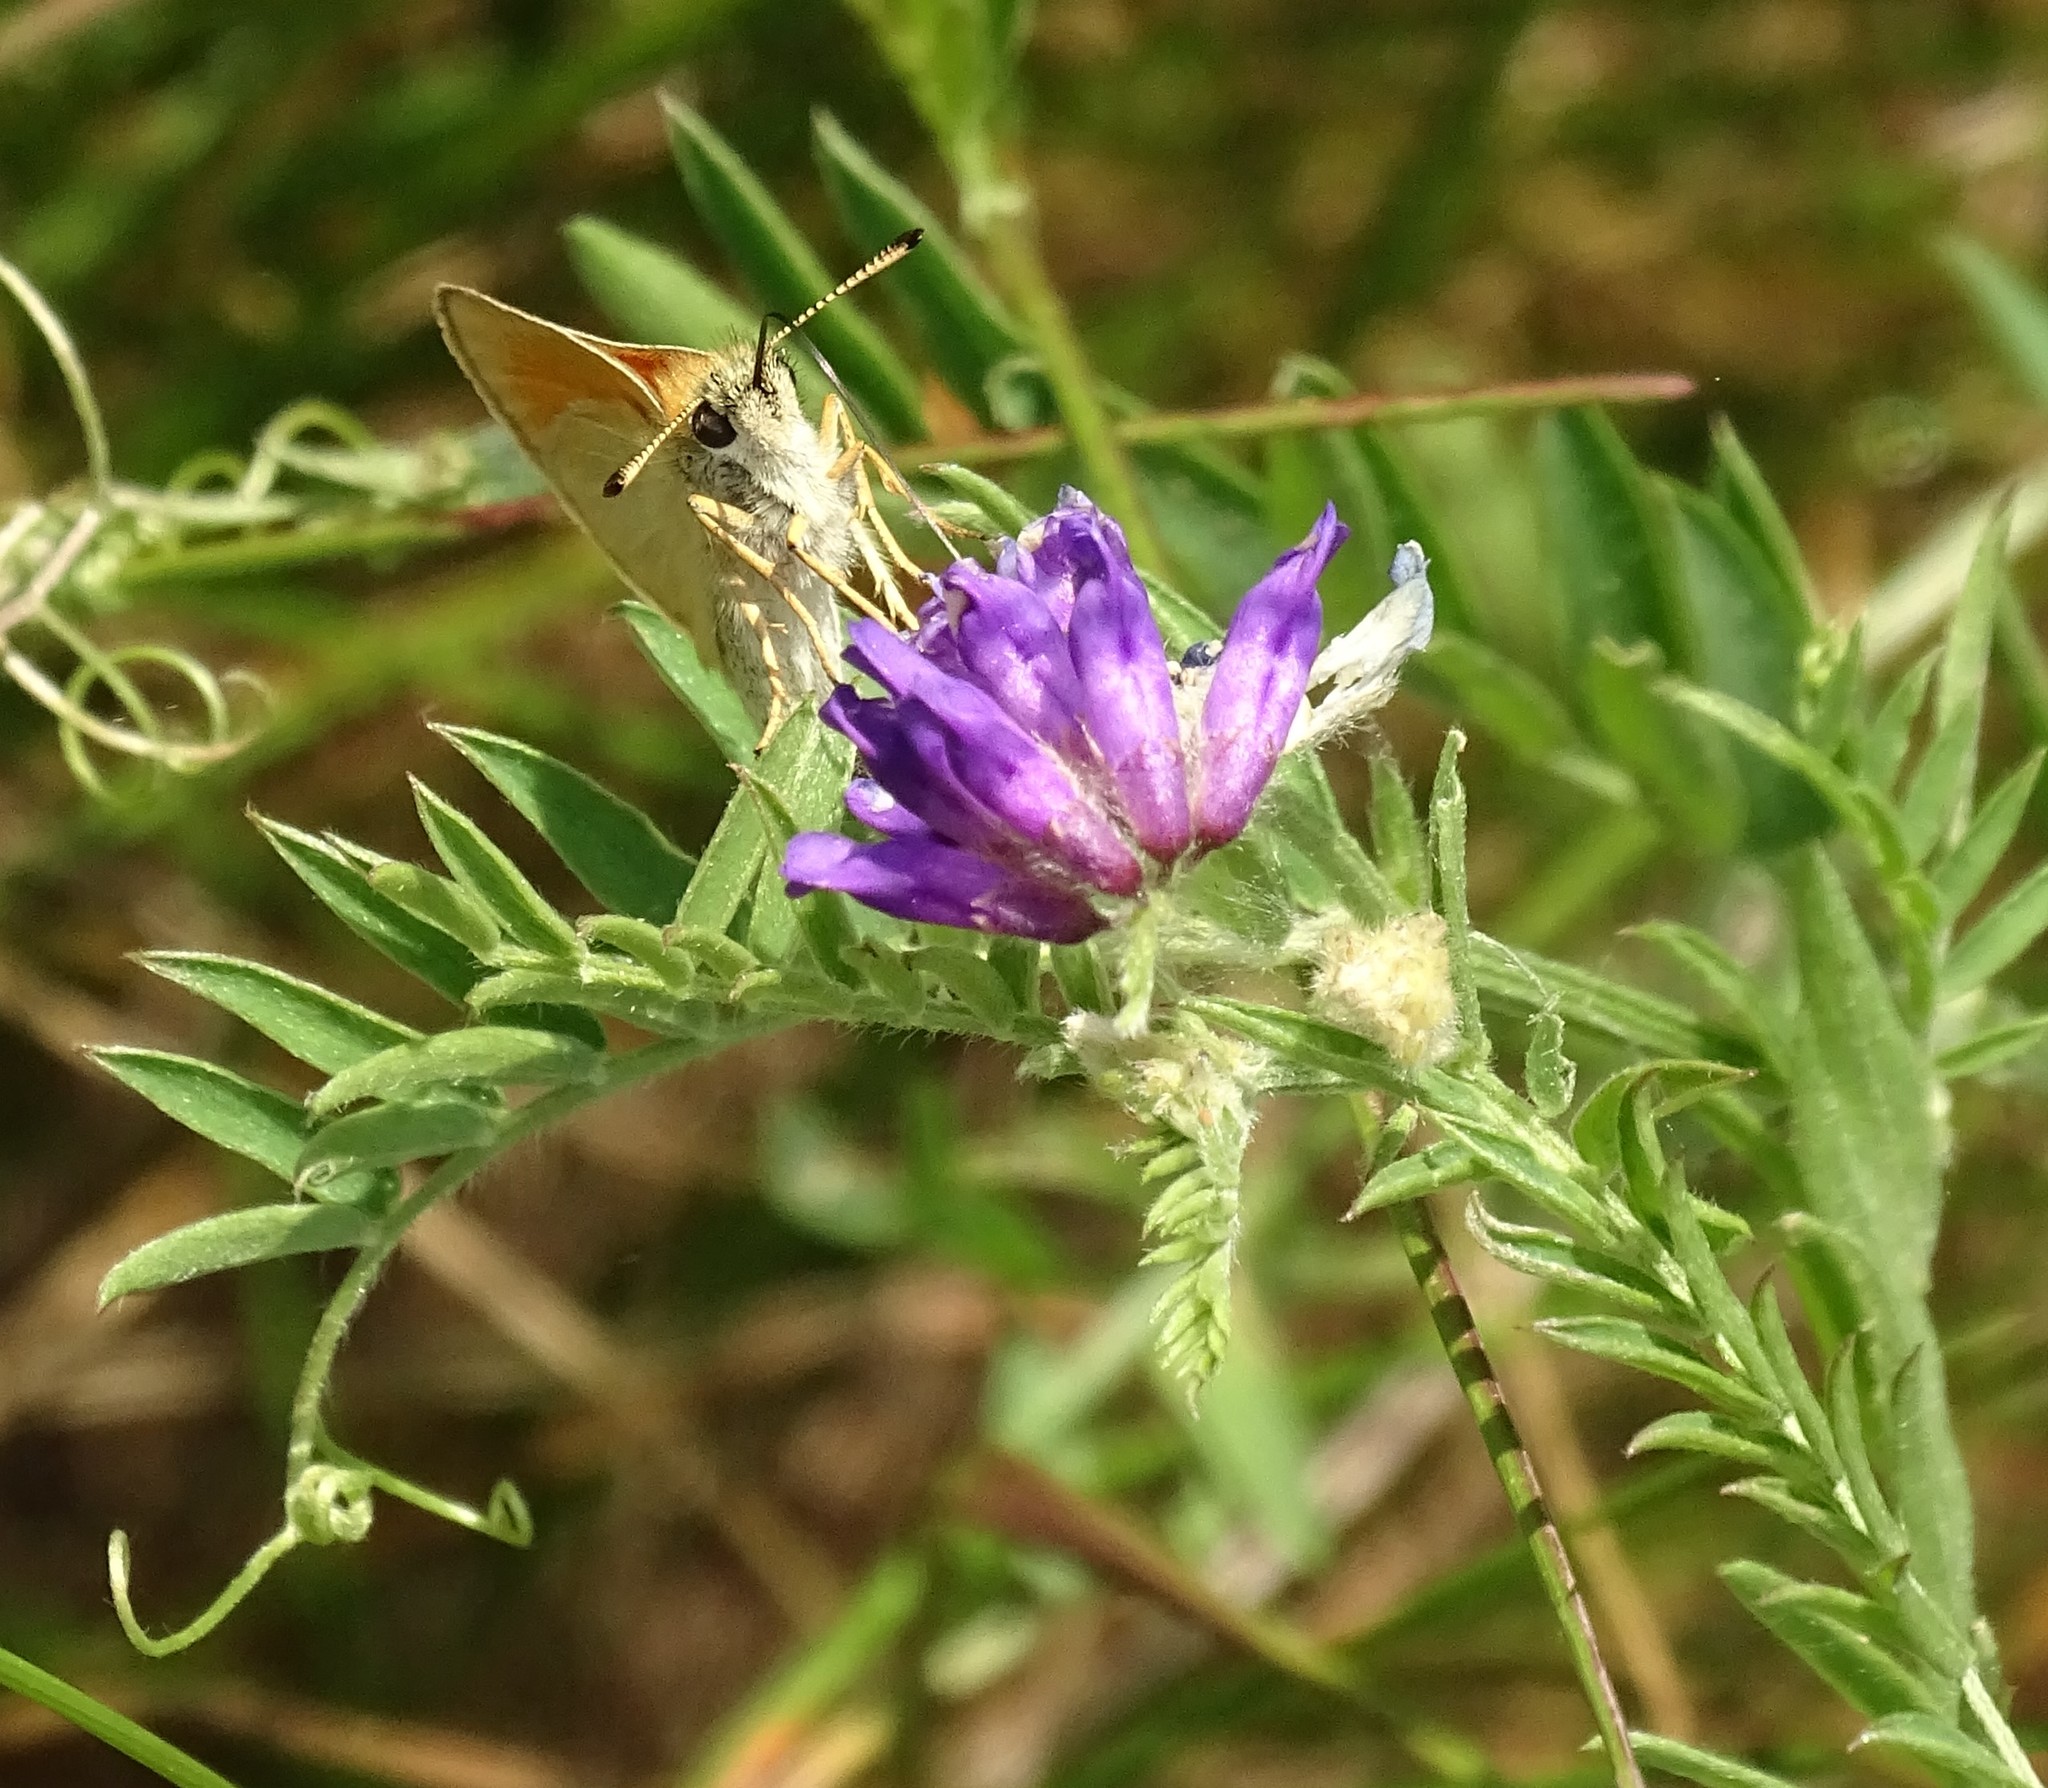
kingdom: Animalia
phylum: Arthropoda
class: Insecta
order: Lepidoptera
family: Hesperiidae
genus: Thymelicus
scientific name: Thymelicus lineola
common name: Essex skipper
